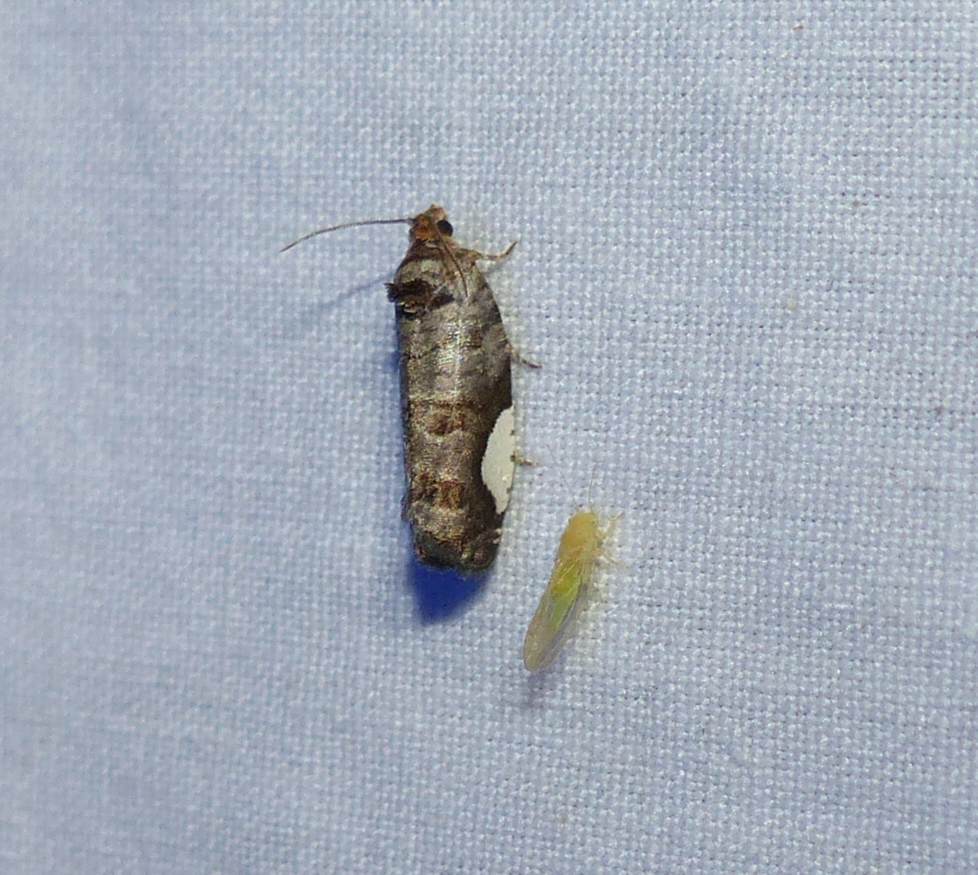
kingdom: Animalia
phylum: Arthropoda
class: Insecta
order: Lepidoptera
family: Tortricidae
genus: Hedya
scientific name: Hedya chionosema
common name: White-spotted hedya moth
